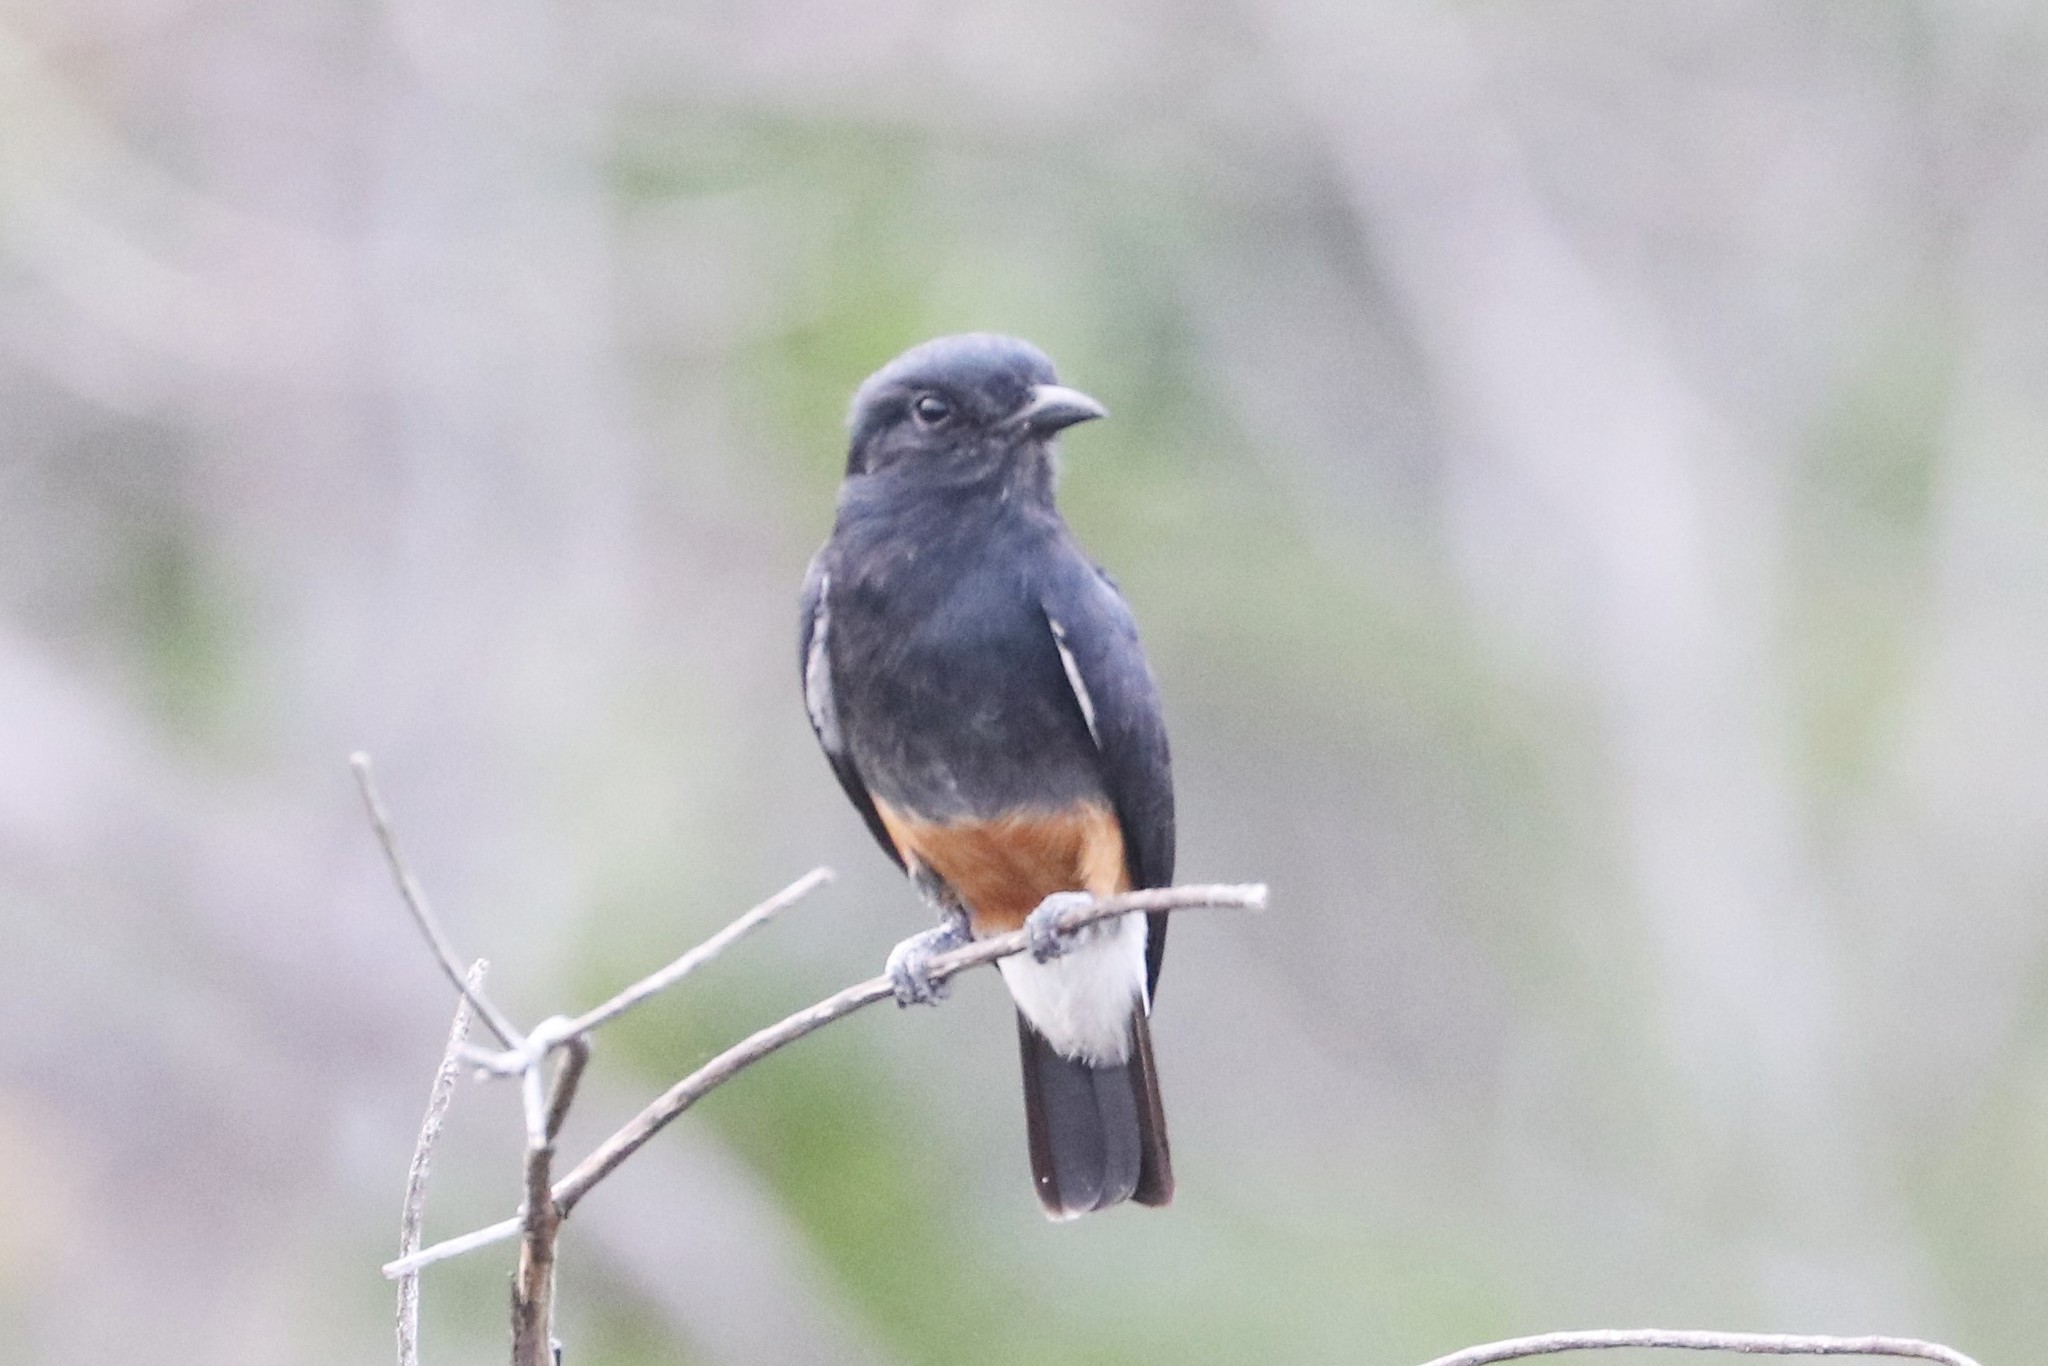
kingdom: Animalia
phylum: Chordata
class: Aves
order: Piciformes
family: Bucconidae
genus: Chelidoptera
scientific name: Chelidoptera tenebrosa
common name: Swallow-winged puffbird
